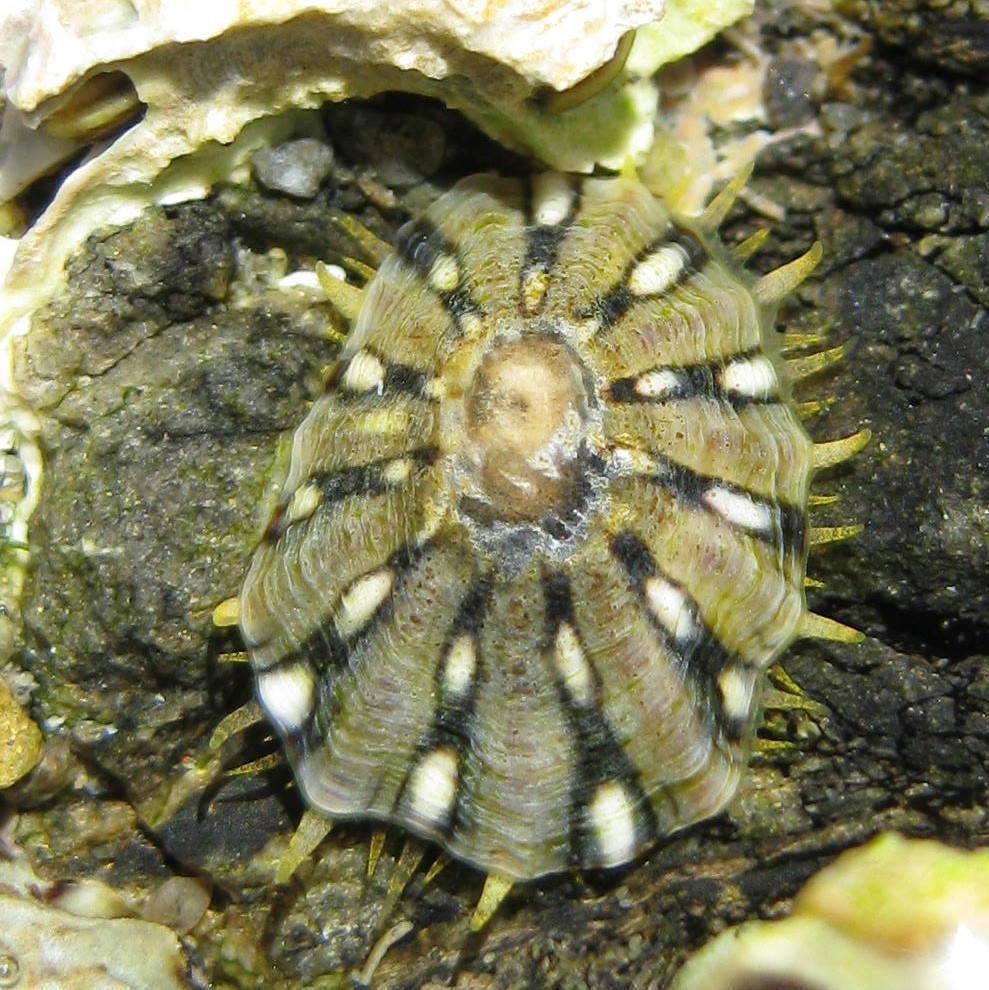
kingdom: Animalia
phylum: Mollusca
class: Gastropoda
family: Nacellidae
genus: Cellana
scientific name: Cellana ornata
